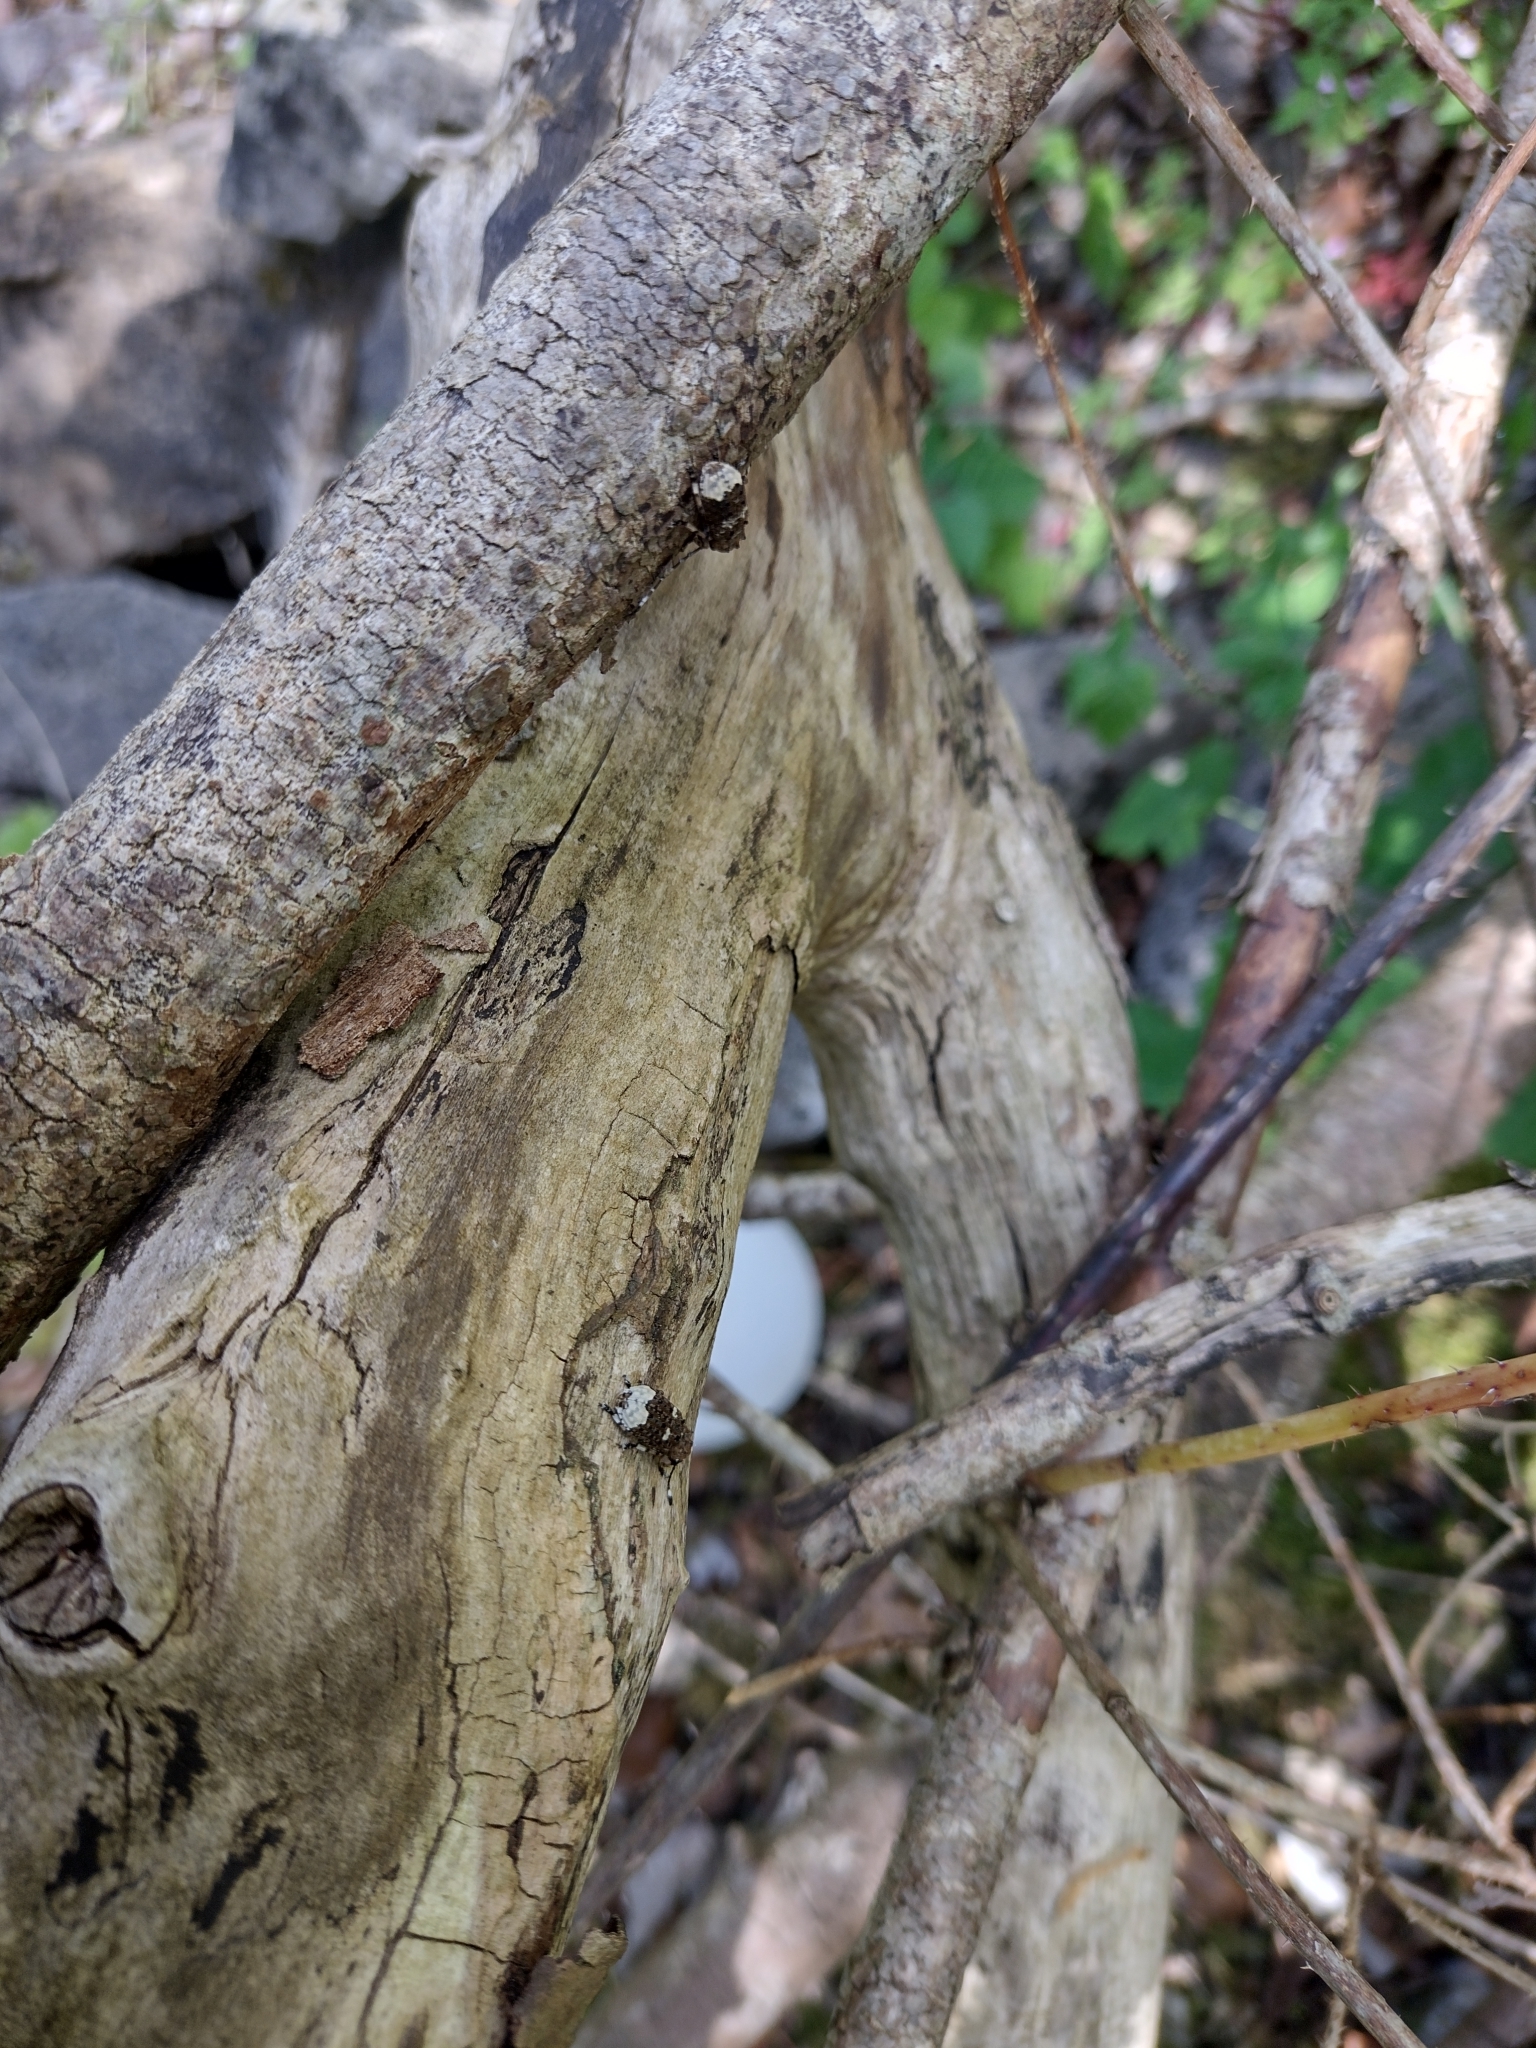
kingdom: Animalia
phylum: Arthropoda
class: Insecta
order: Coleoptera
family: Anthribidae
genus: Platystomos
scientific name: Platystomos albinus
